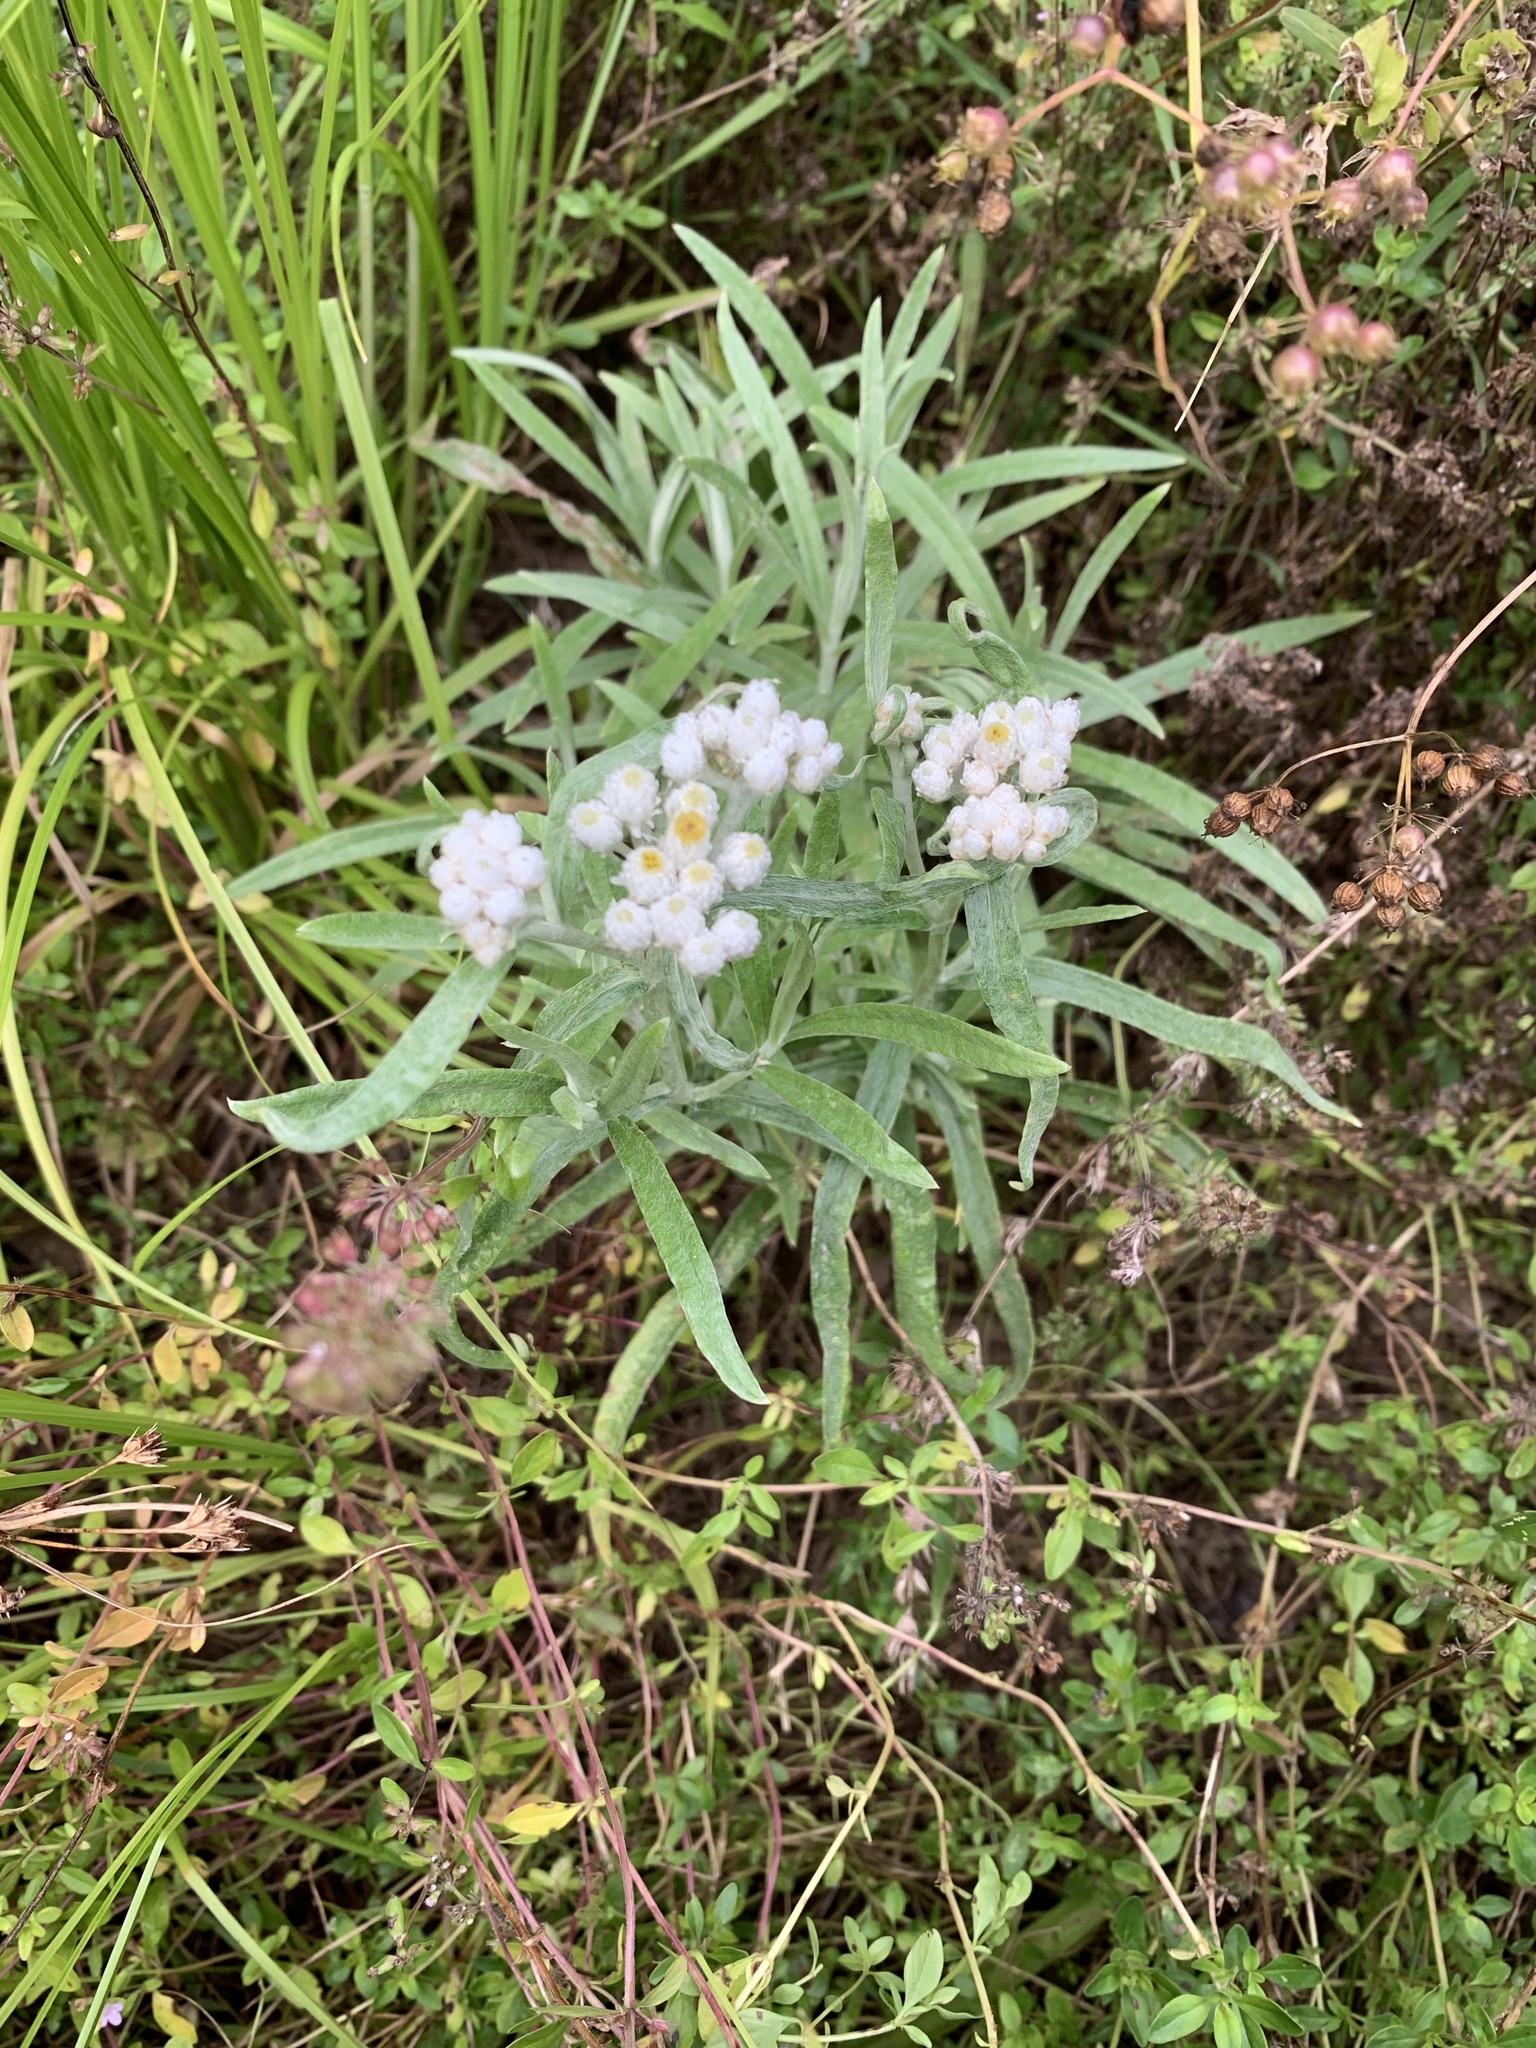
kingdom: Plantae
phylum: Tracheophyta
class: Magnoliopsida
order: Asterales
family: Asteraceae
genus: Anaphalis
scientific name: Anaphalis margaritacea
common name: Pearly everlasting
